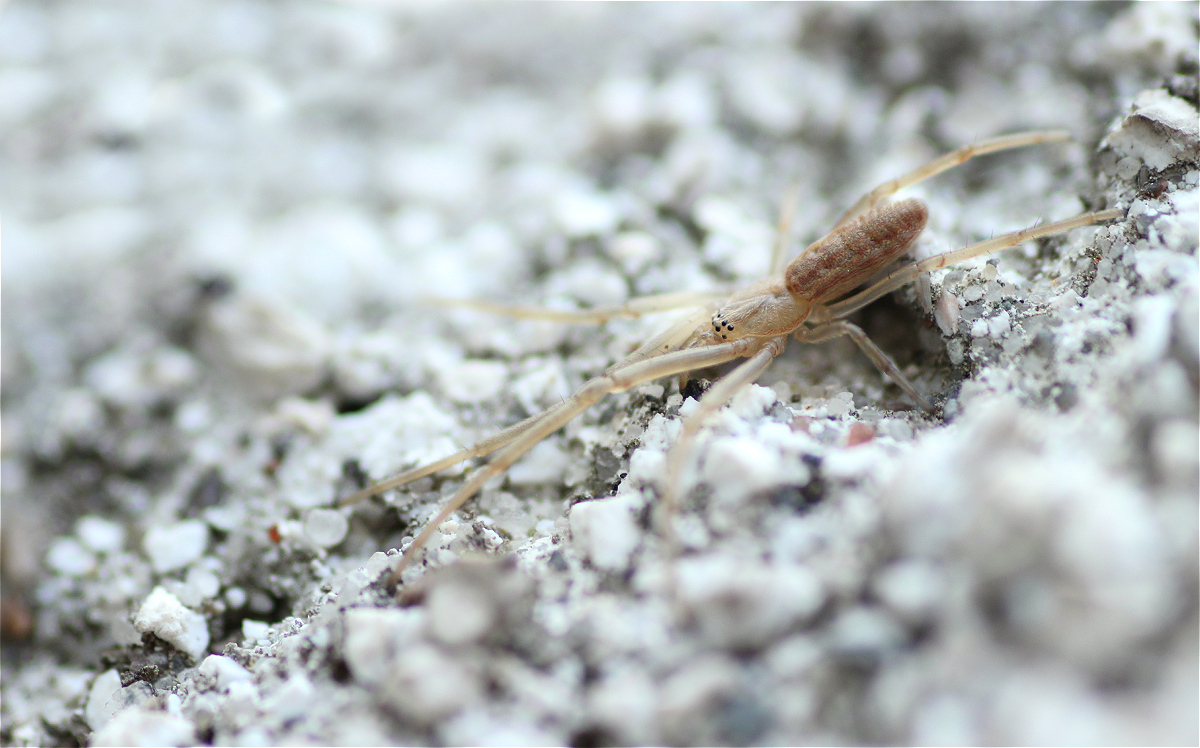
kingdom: Animalia
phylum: Arthropoda
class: Arachnida
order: Araneae
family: Tetragnathidae
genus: Tetragnatha
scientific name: Tetragnatha striata
